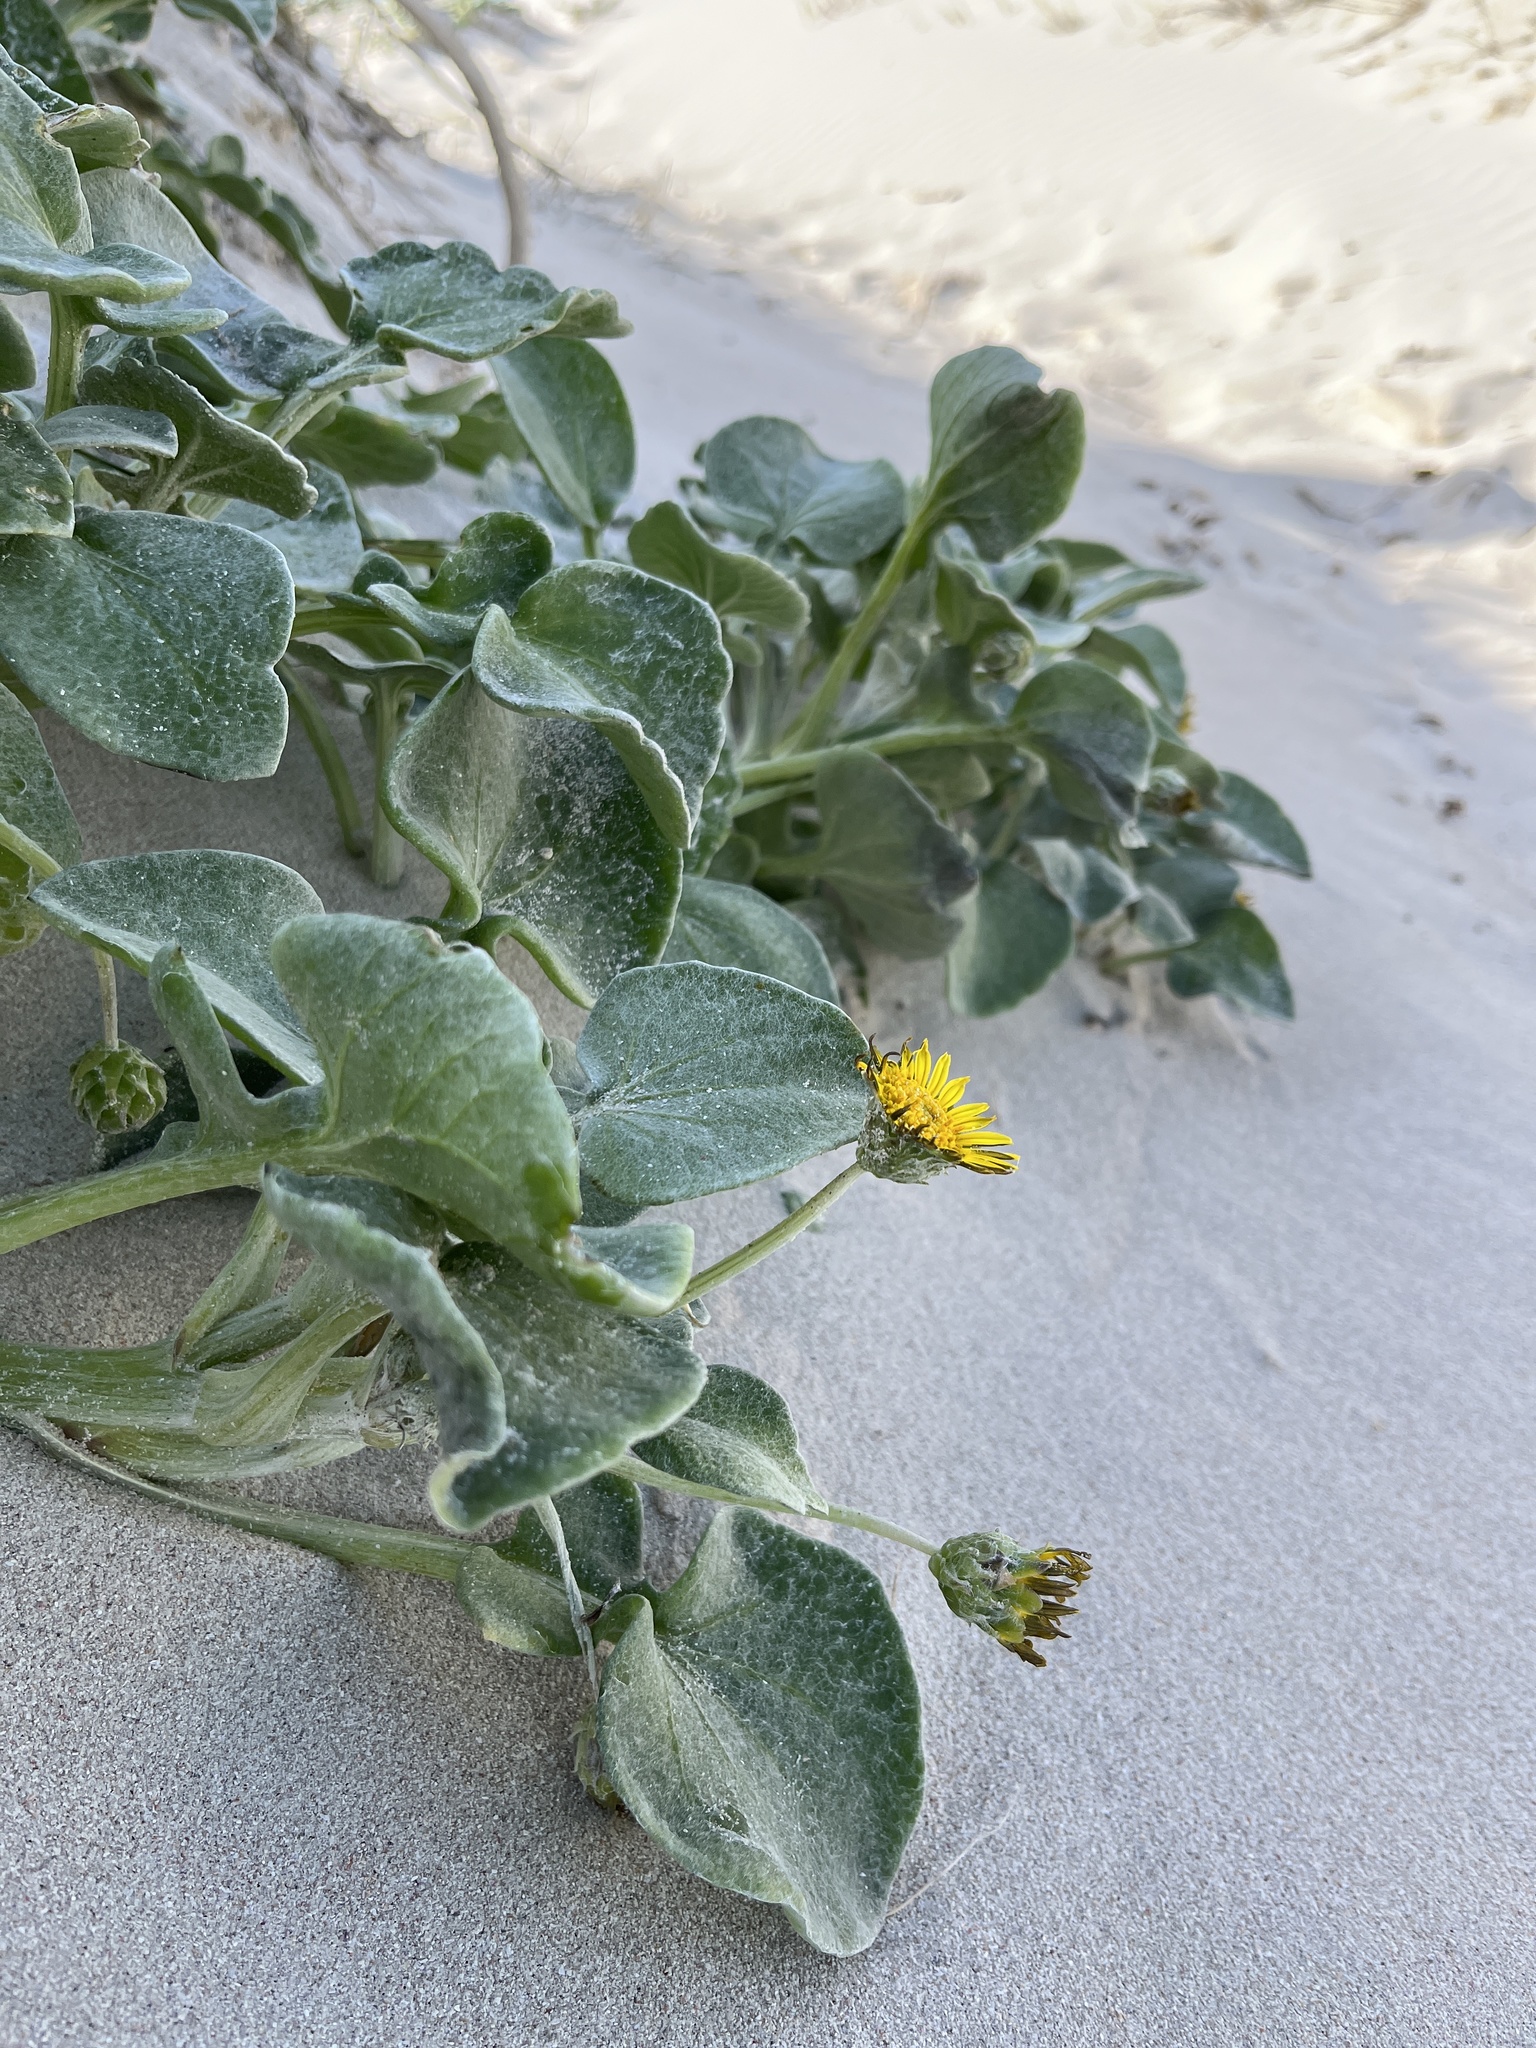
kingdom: Plantae
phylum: Tracheophyta
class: Magnoliopsida
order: Asterales
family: Asteraceae
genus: Arctotheca
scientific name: Arctotheca populifolia
